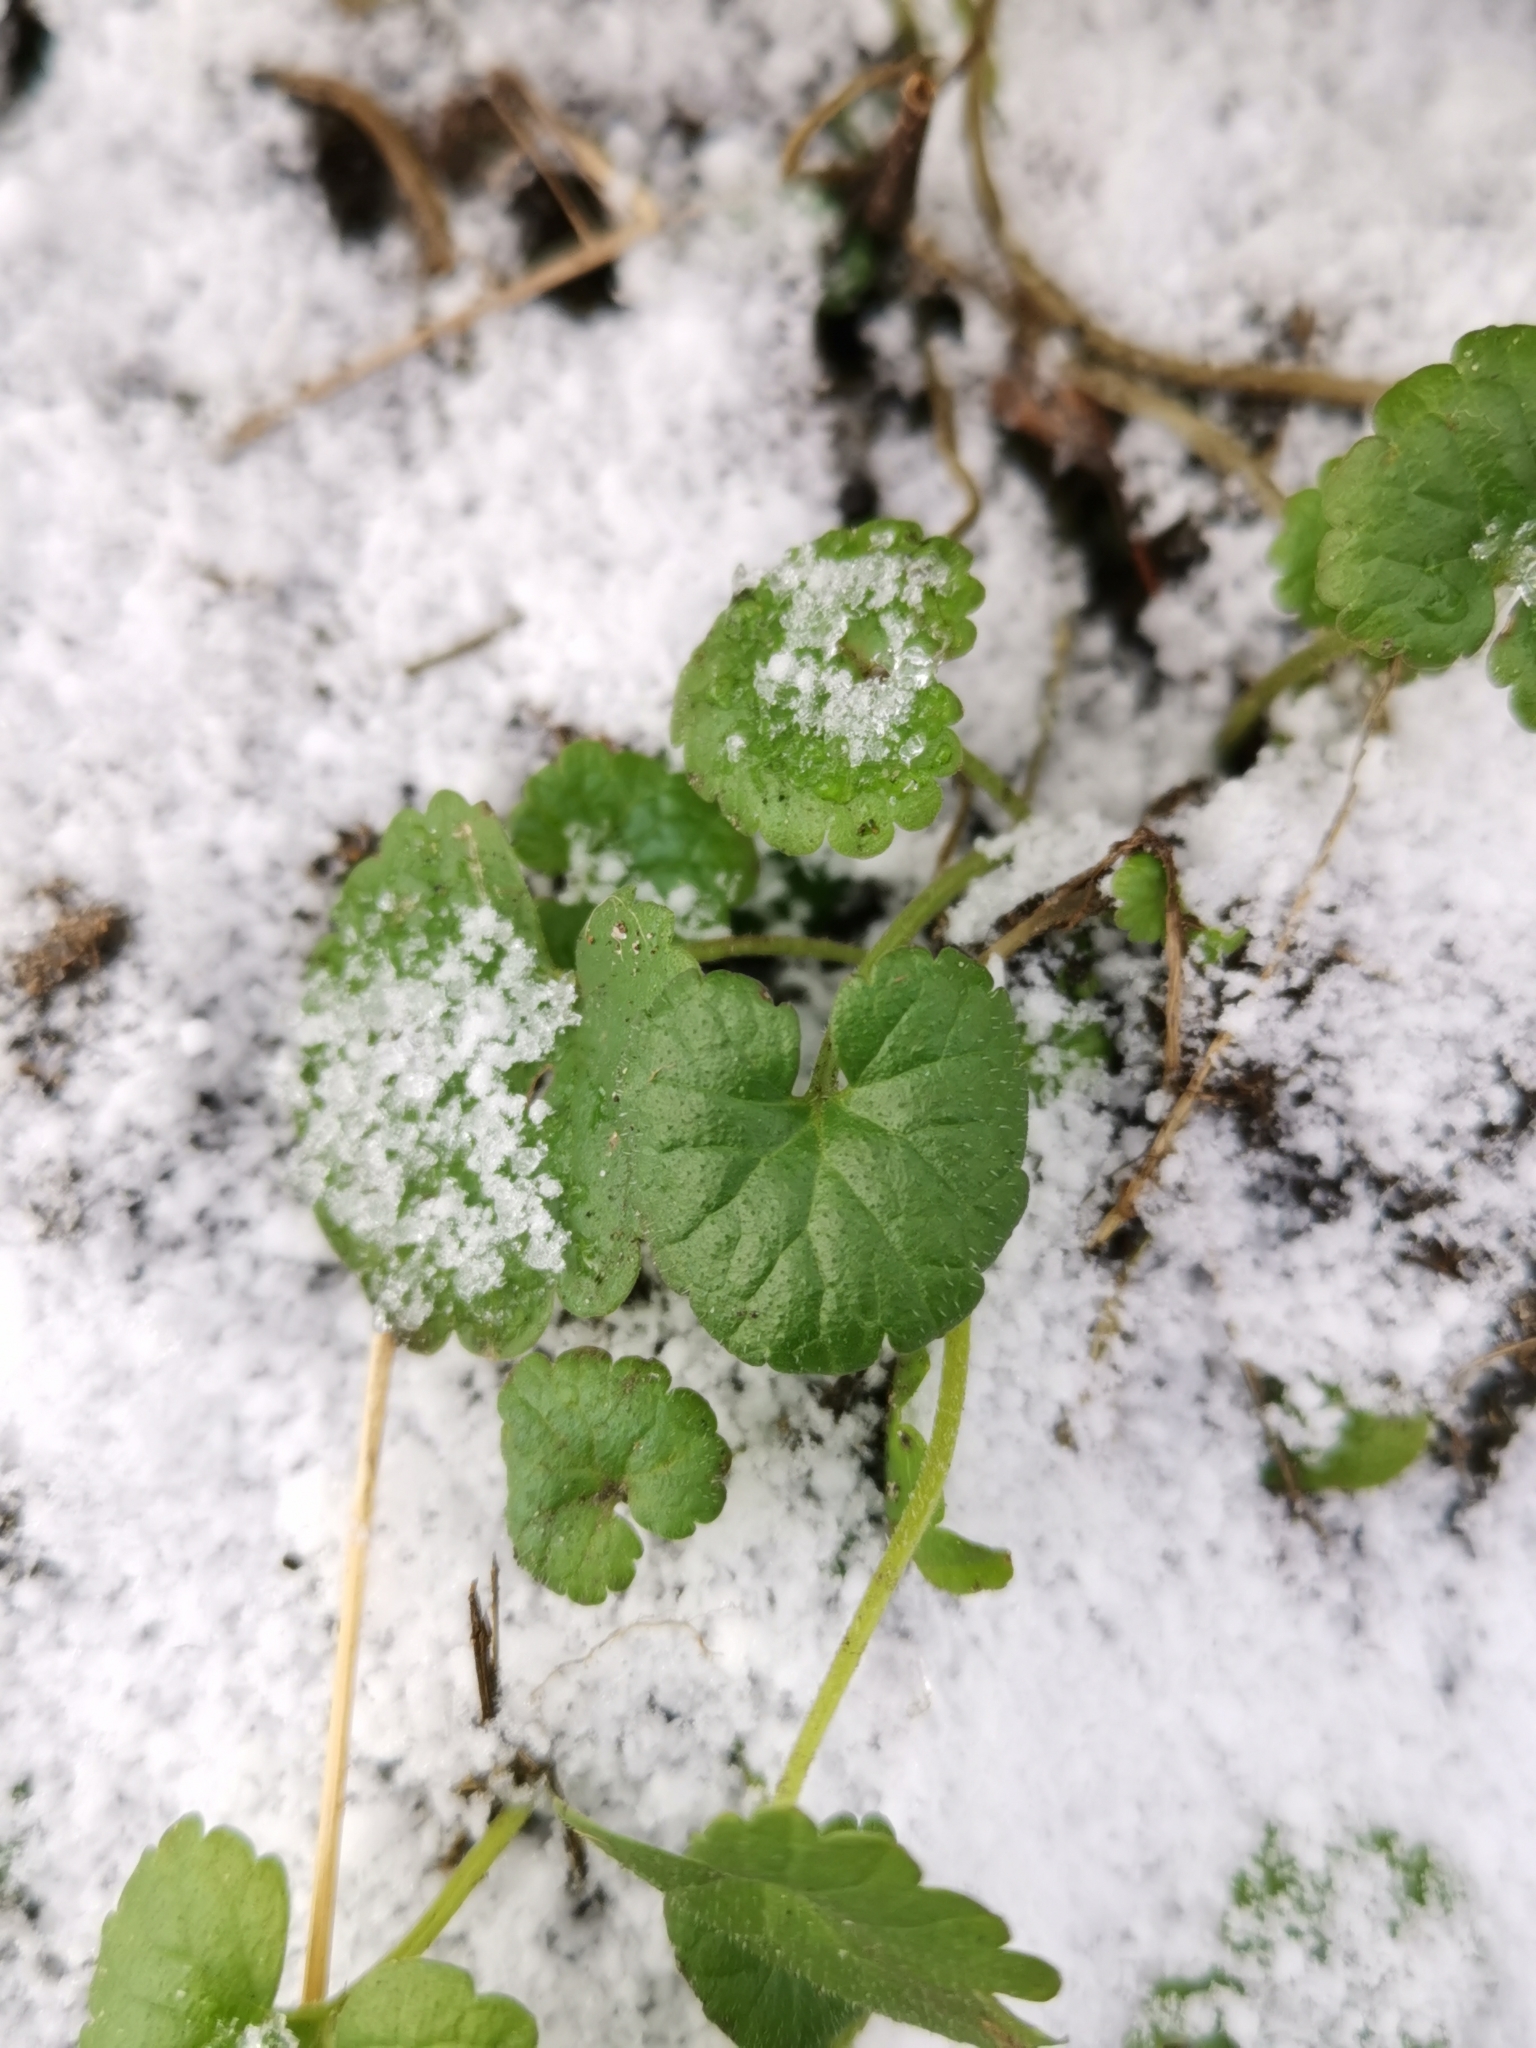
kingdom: Plantae
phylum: Tracheophyta
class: Magnoliopsida
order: Lamiales
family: Lamiaceae
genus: Glechoma
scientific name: Glechoma hederacea
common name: Ground ivy
